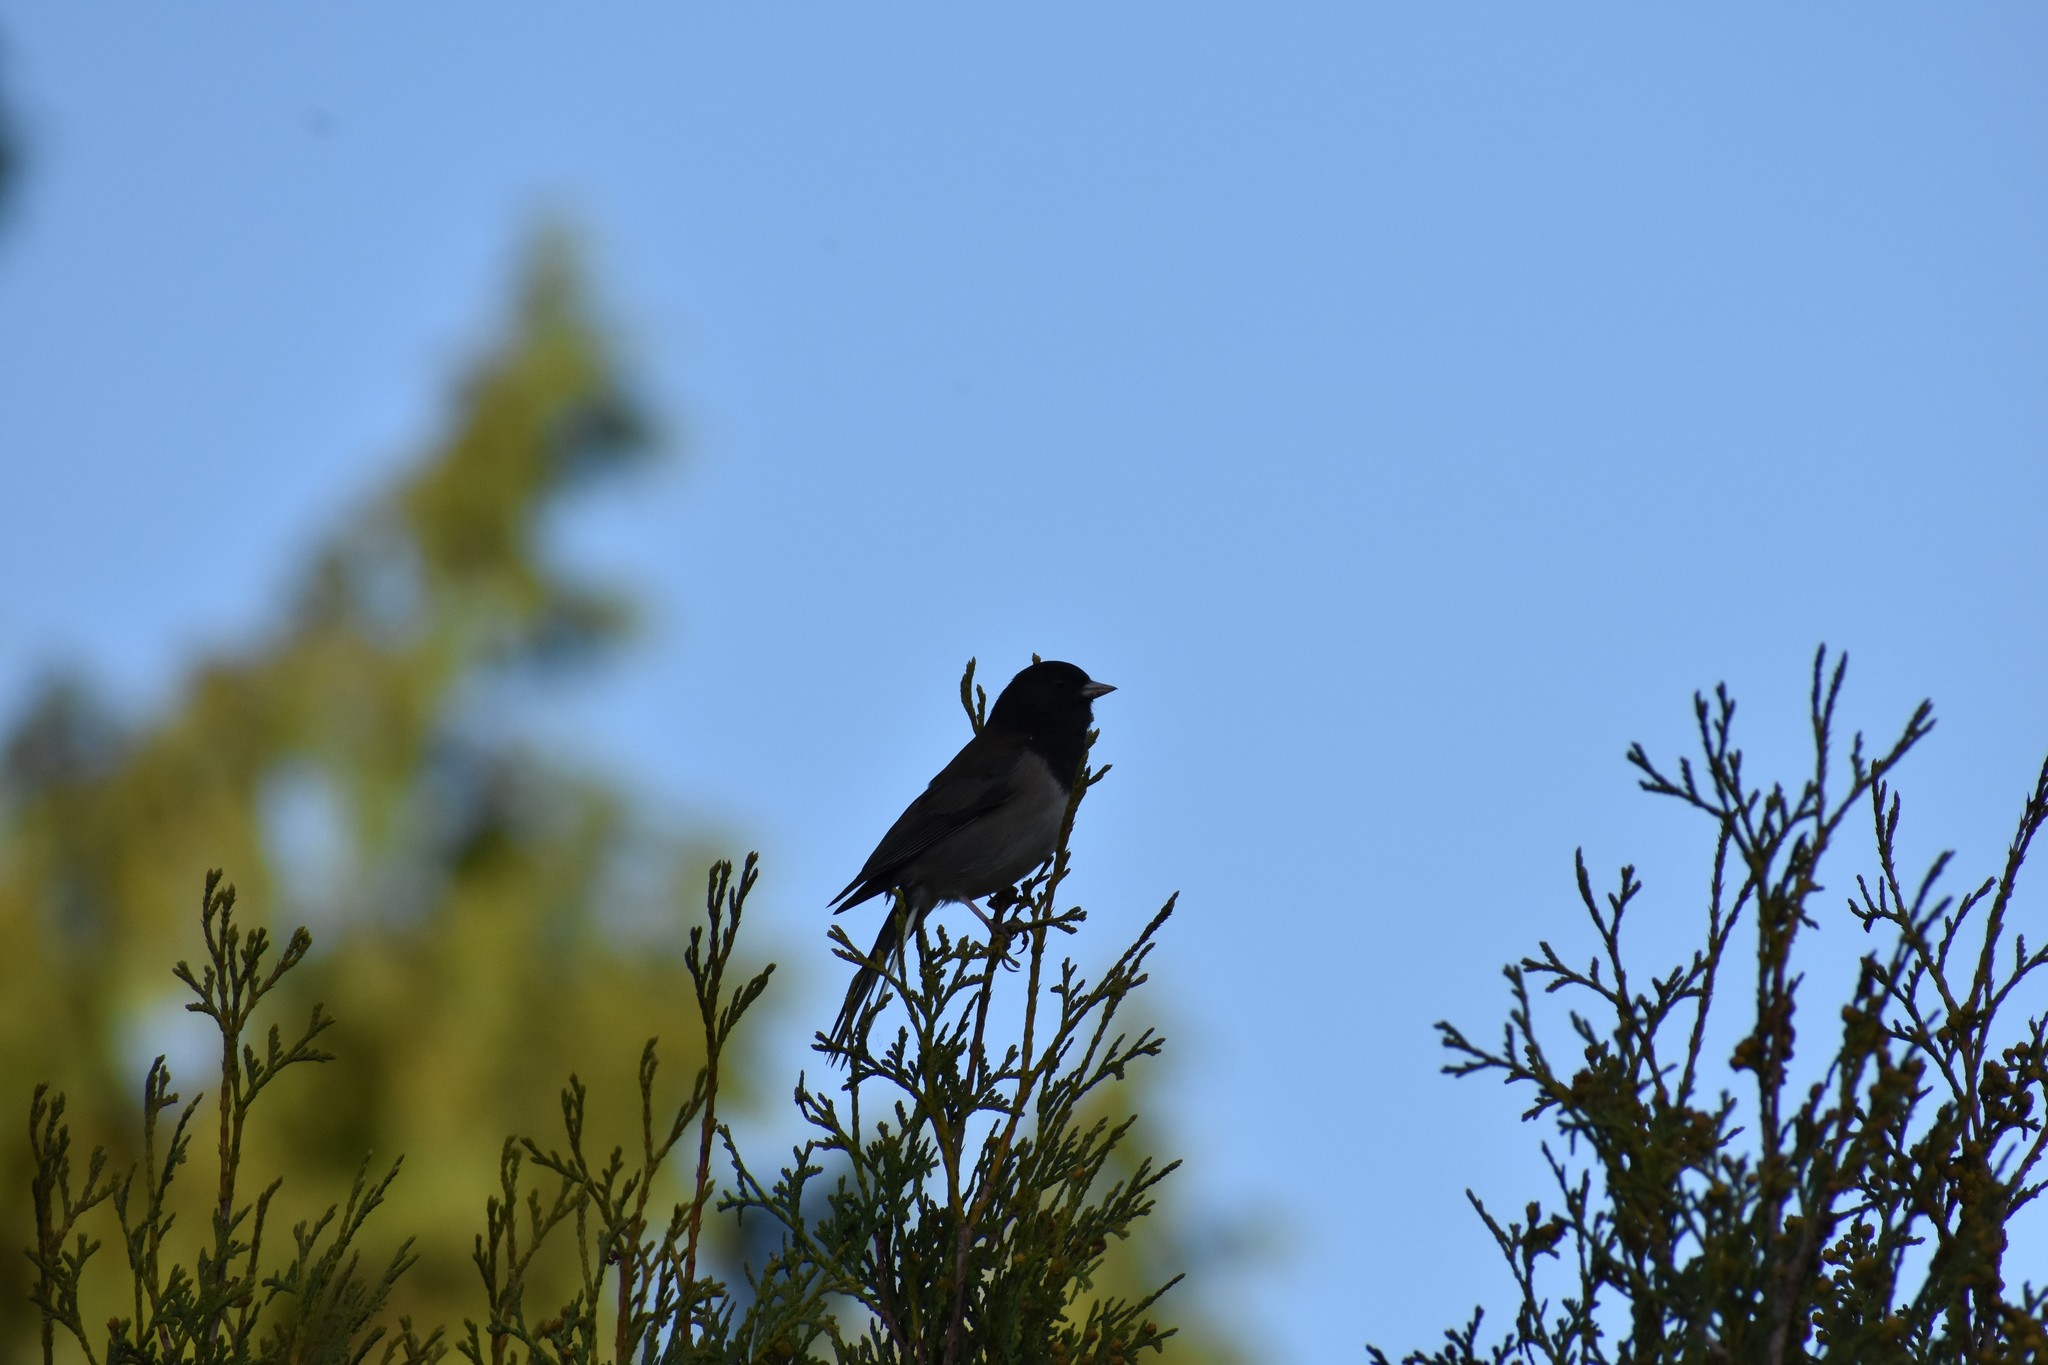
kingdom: Animalia
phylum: Chordata
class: Aves
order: Passeriformes
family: Passerellidae
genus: Junco
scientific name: Junco hyemalis
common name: Dark-eyed junco
